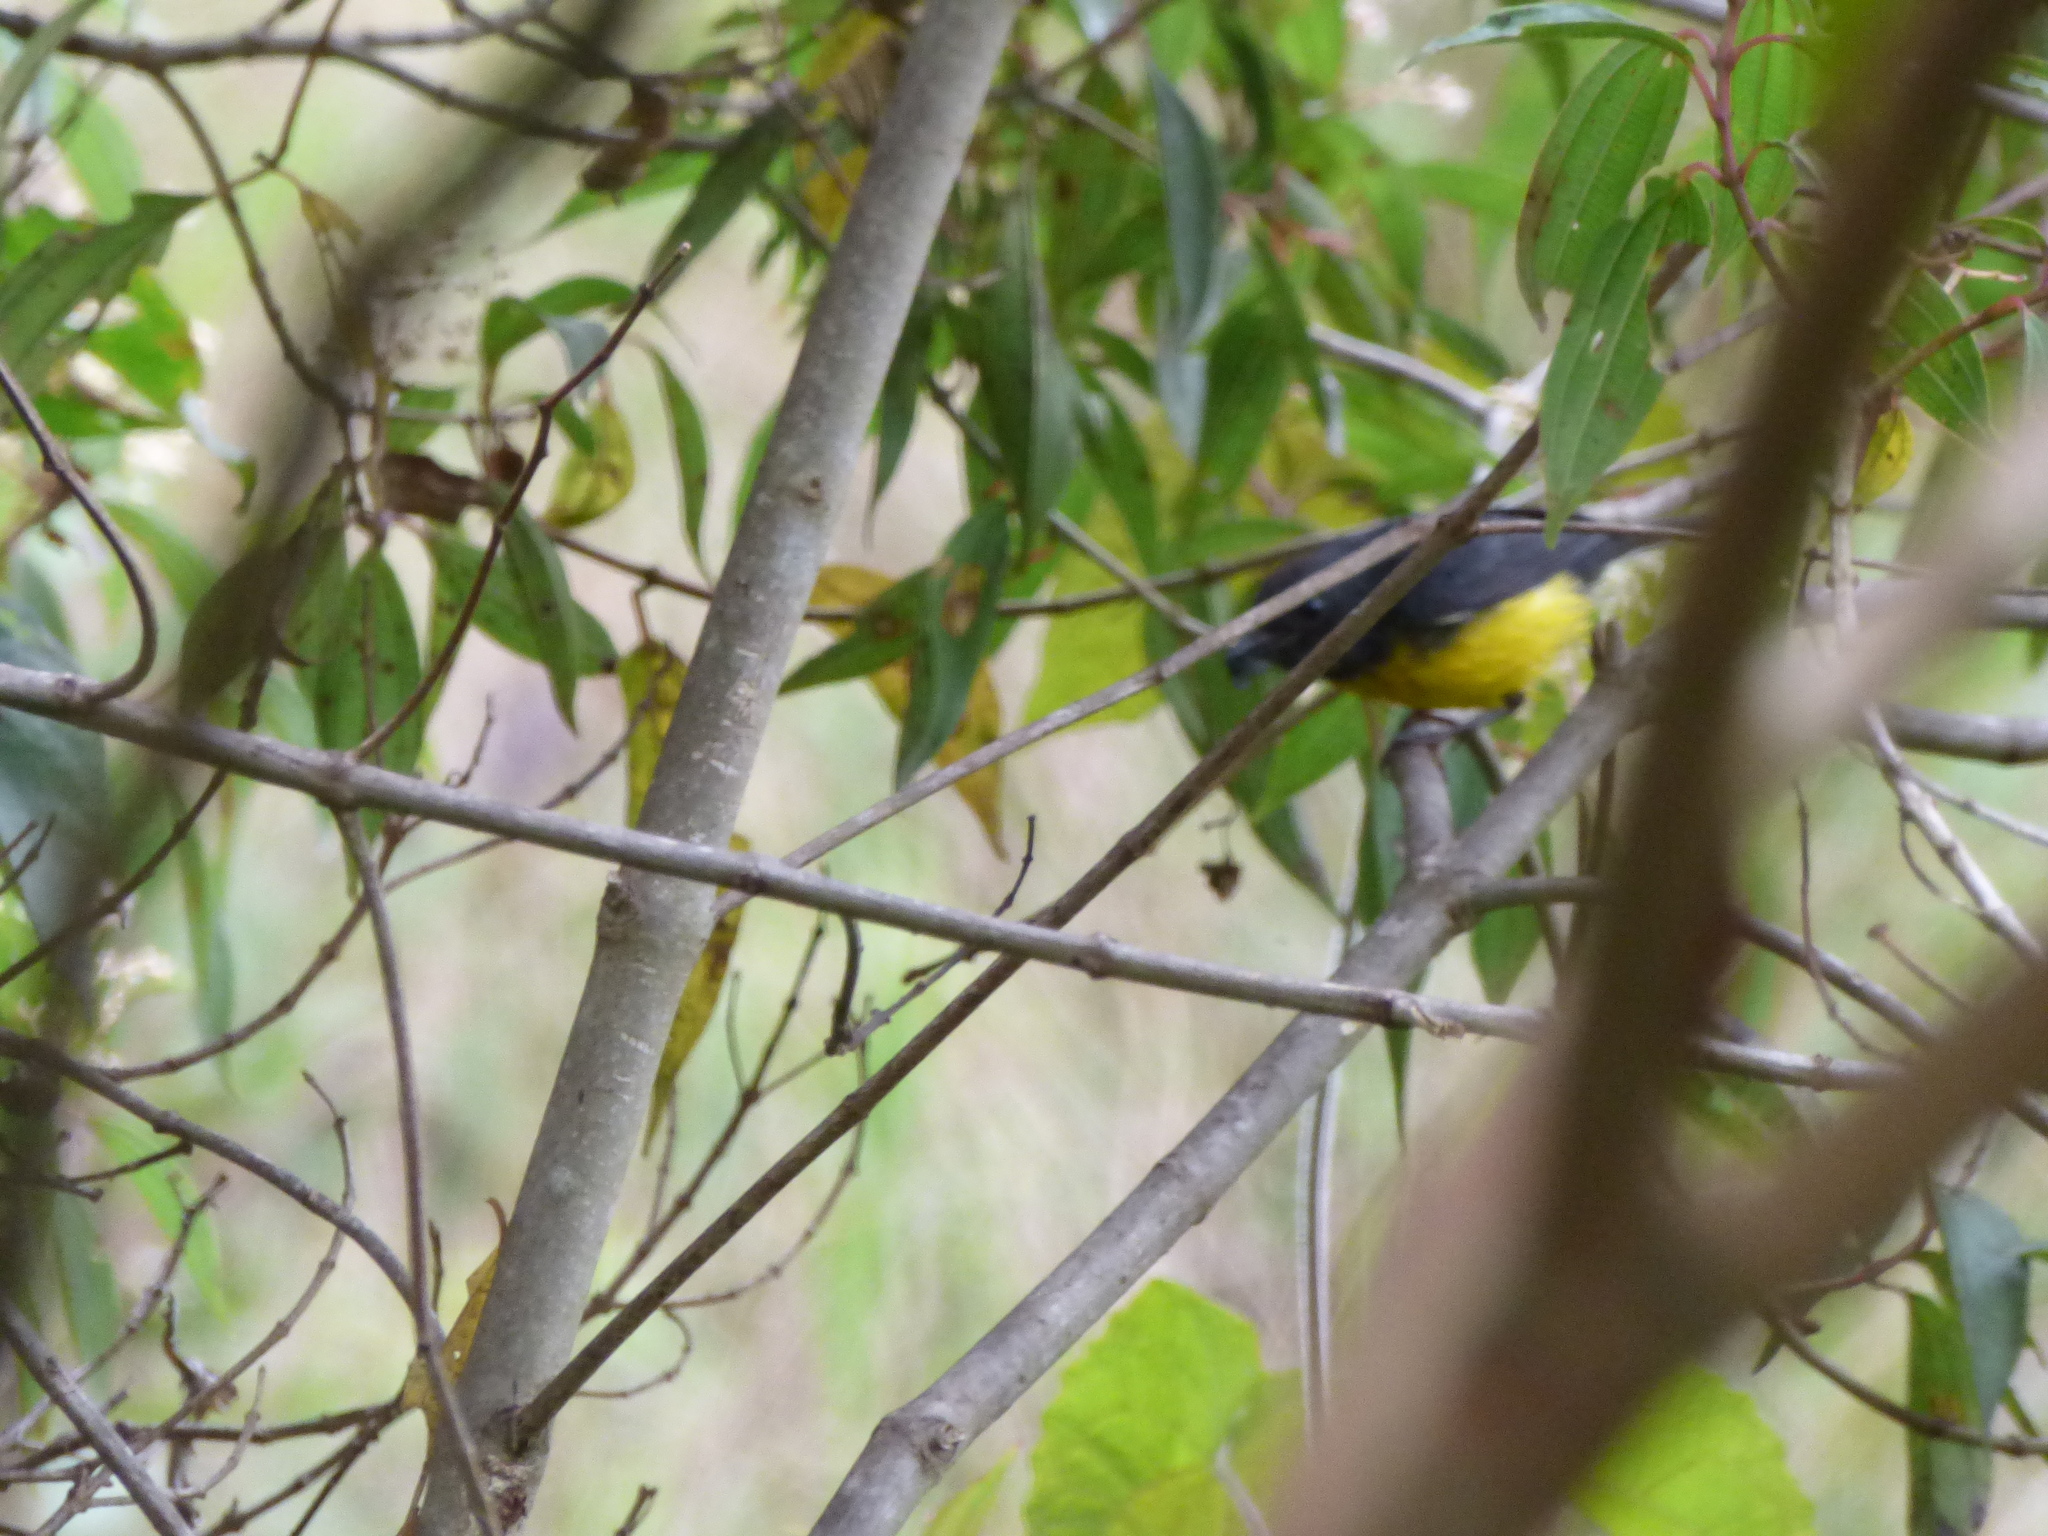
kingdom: Animalia
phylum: Chordata
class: Aves
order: Passeriformes
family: Parulidae
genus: Myioborus
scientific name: Myioborus miniatus
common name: Slate-throated redstart
